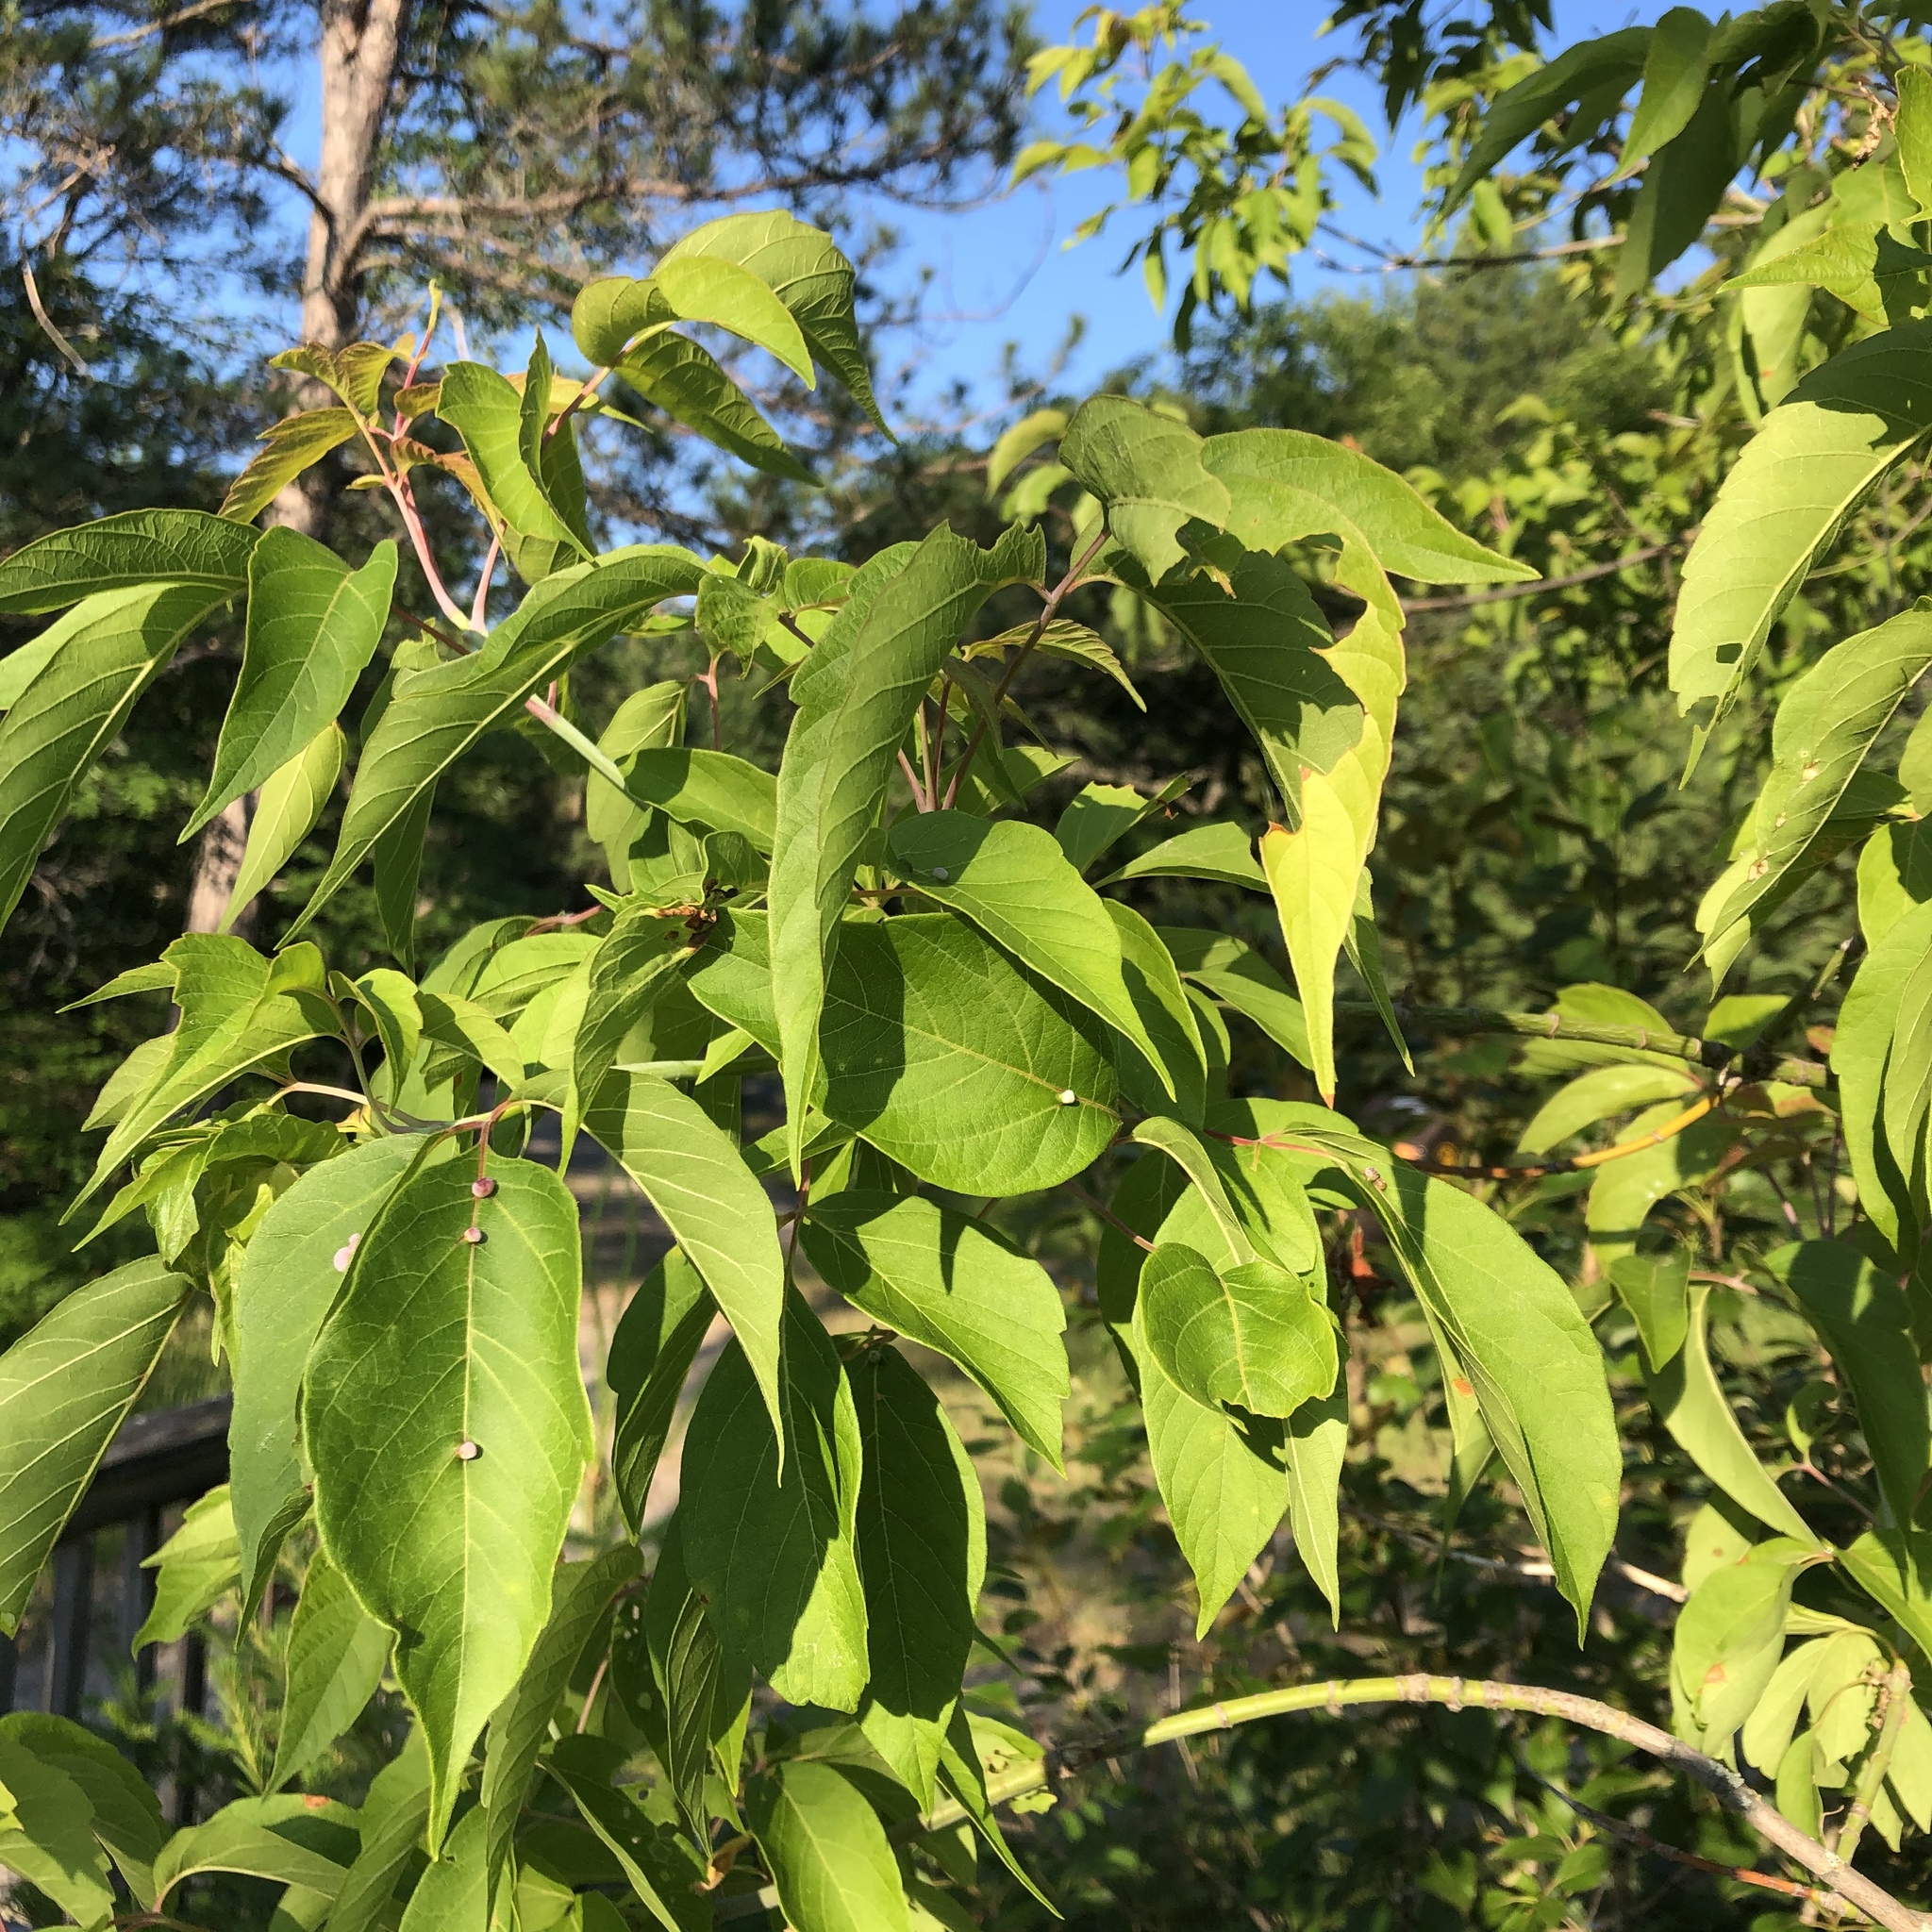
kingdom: Plantae
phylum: Tracheophyta
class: Magnoliopsida
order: Sapindales
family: Sapindaceae
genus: Acer
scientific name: Acer negundo
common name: Ashleaf maple
